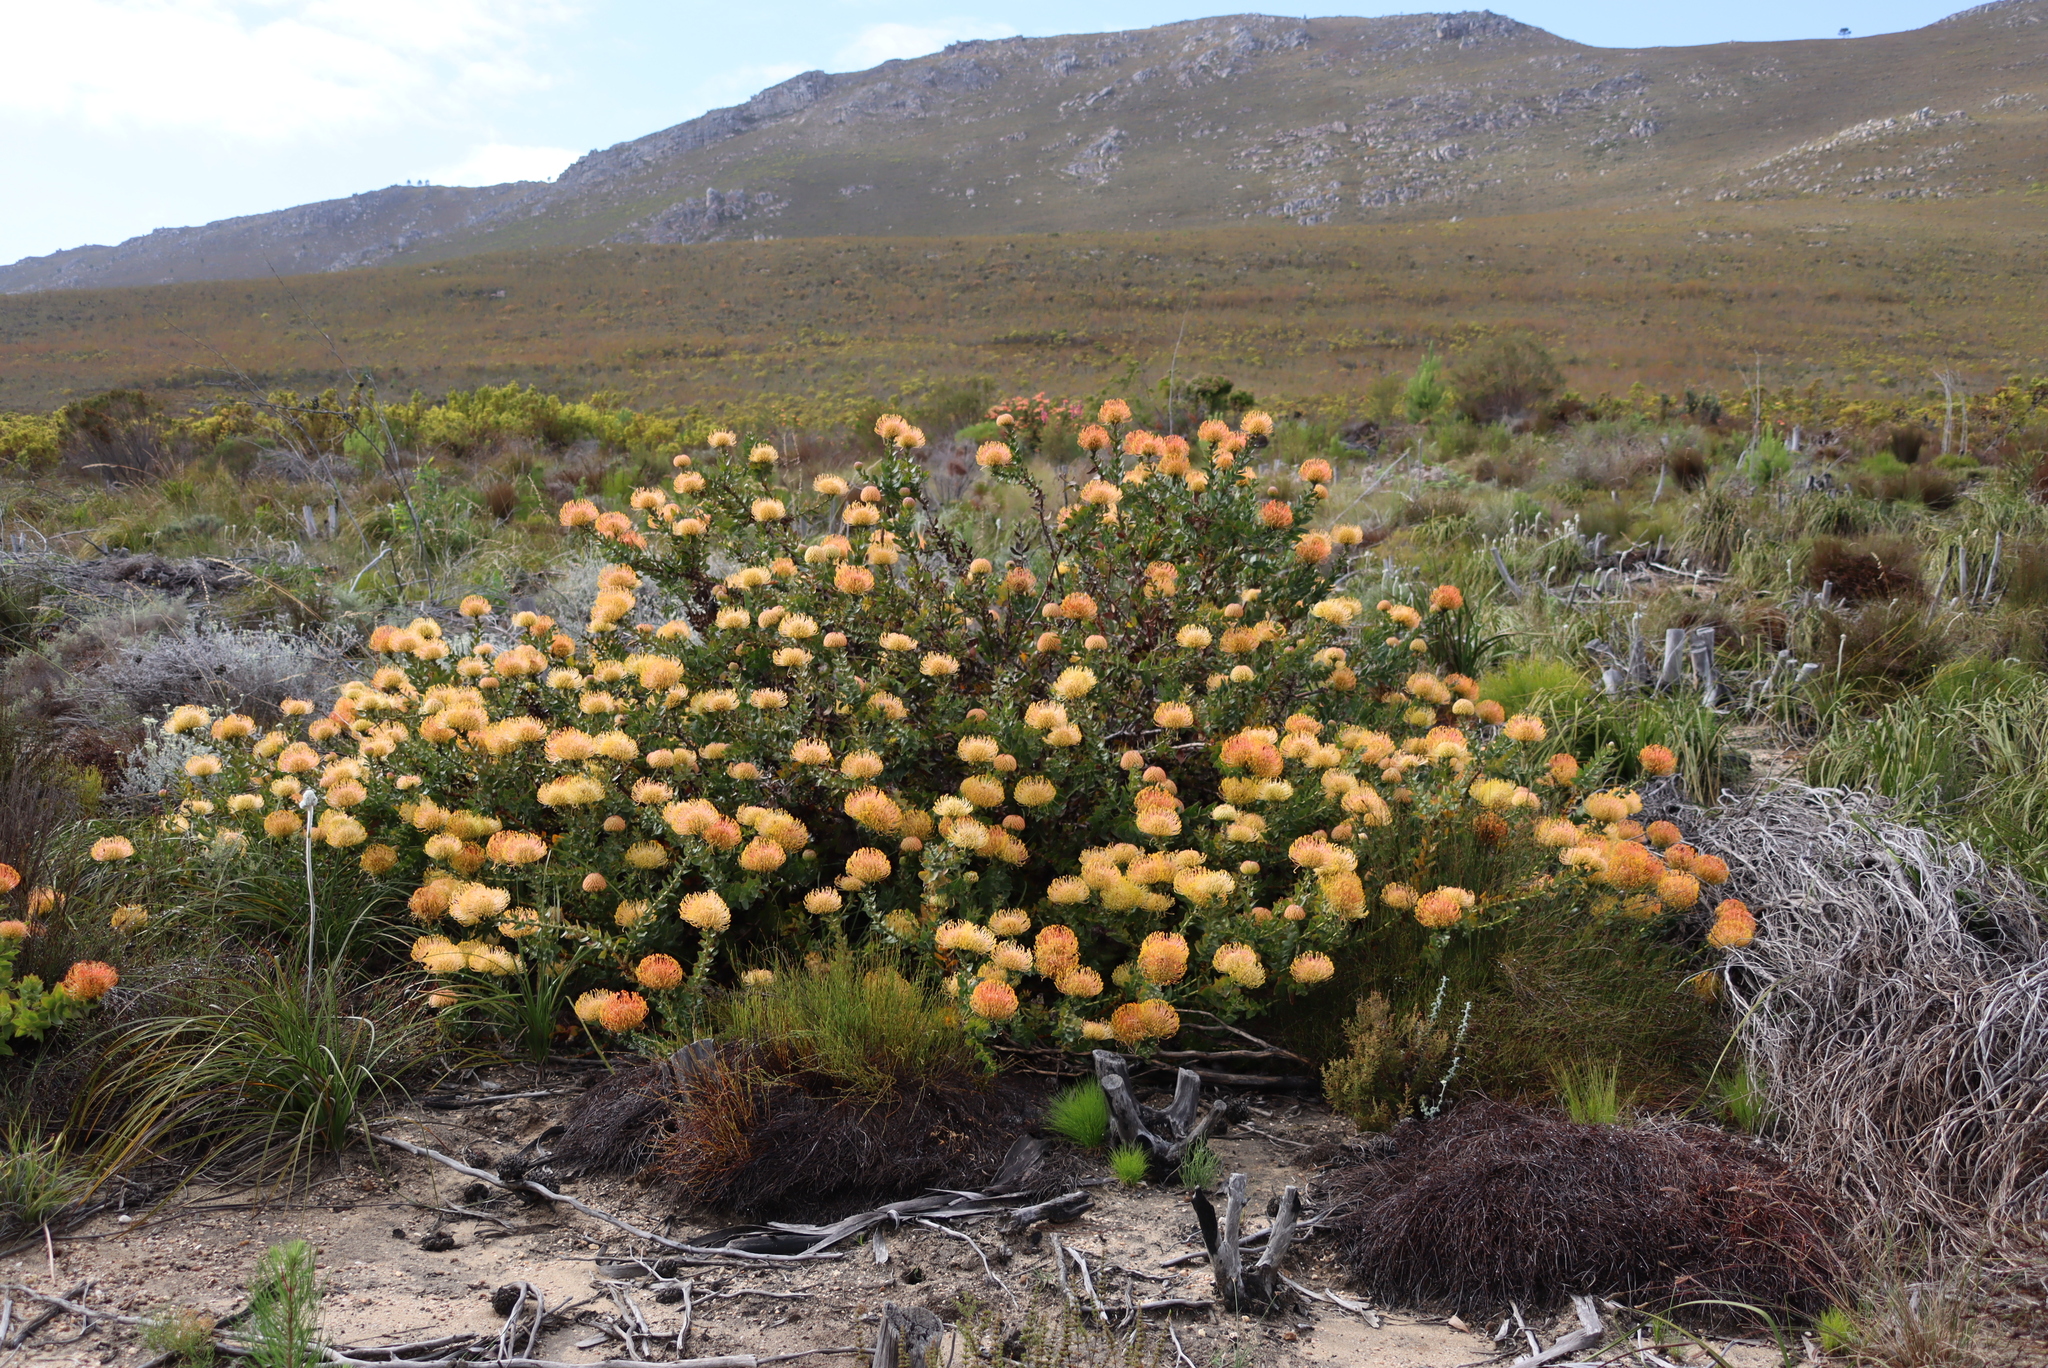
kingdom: Plantae
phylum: Tracheophyta
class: Magnoliopsida
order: Proteales
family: Proteaceae
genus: Leucospermum
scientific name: Leucospermum cordifolium
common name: Red pincushion-protea
